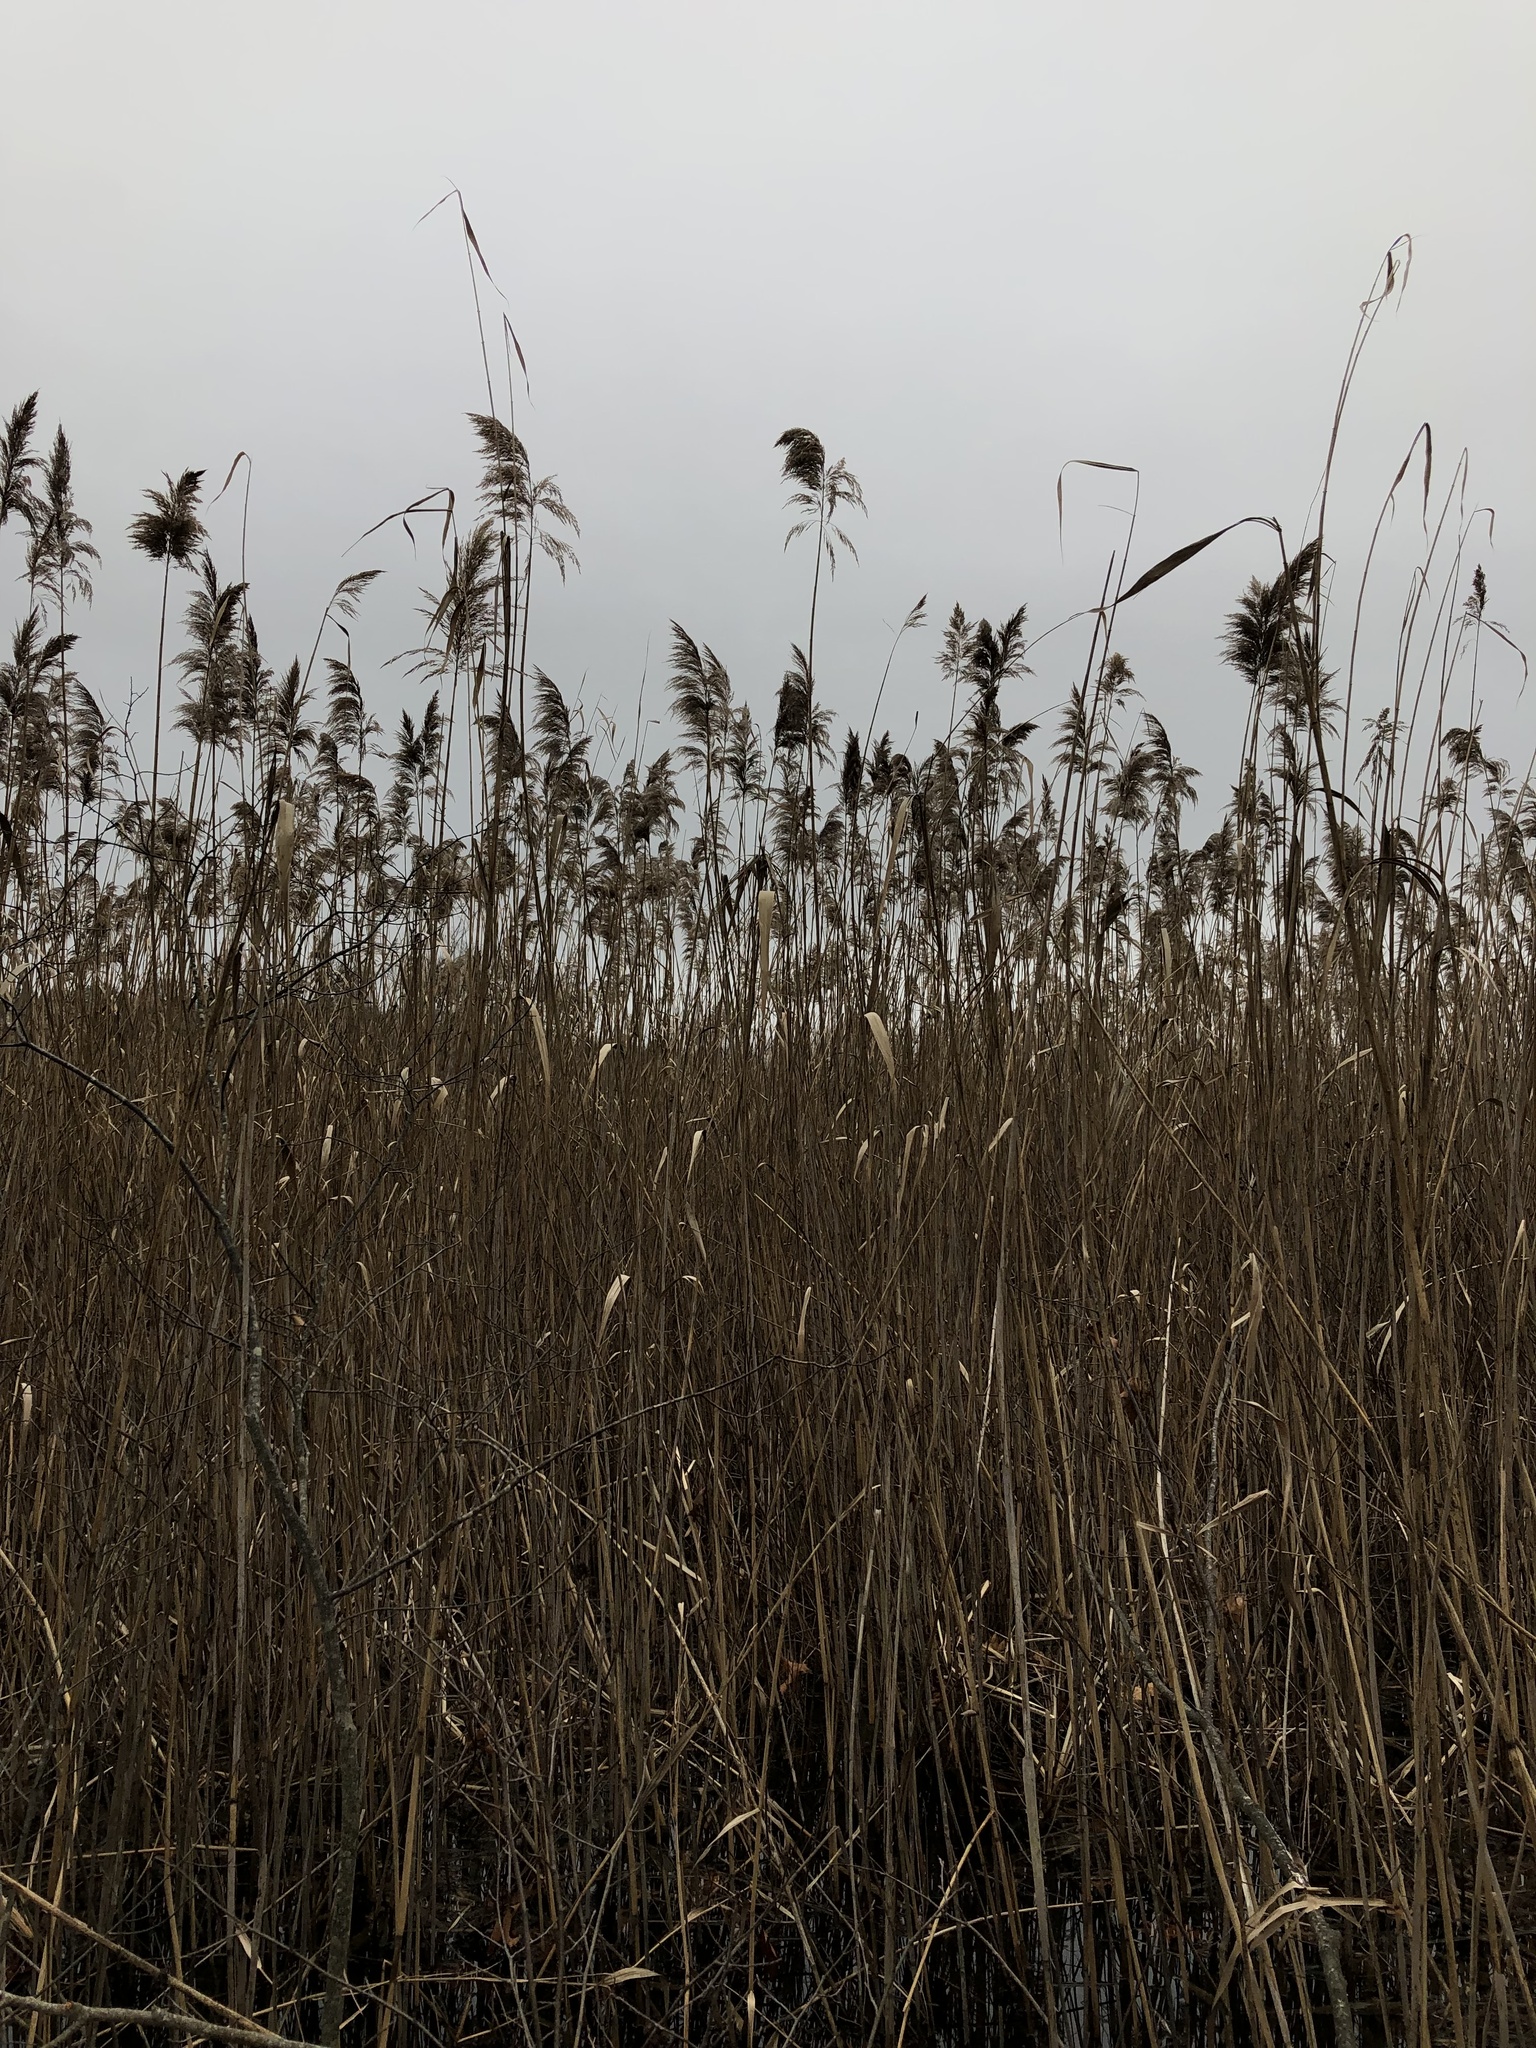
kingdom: Plantae
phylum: Tracheophyta
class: Liliopsida
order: Poales
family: Poaceae
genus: Phragmites
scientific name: Phragmites australis
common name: Common reed
